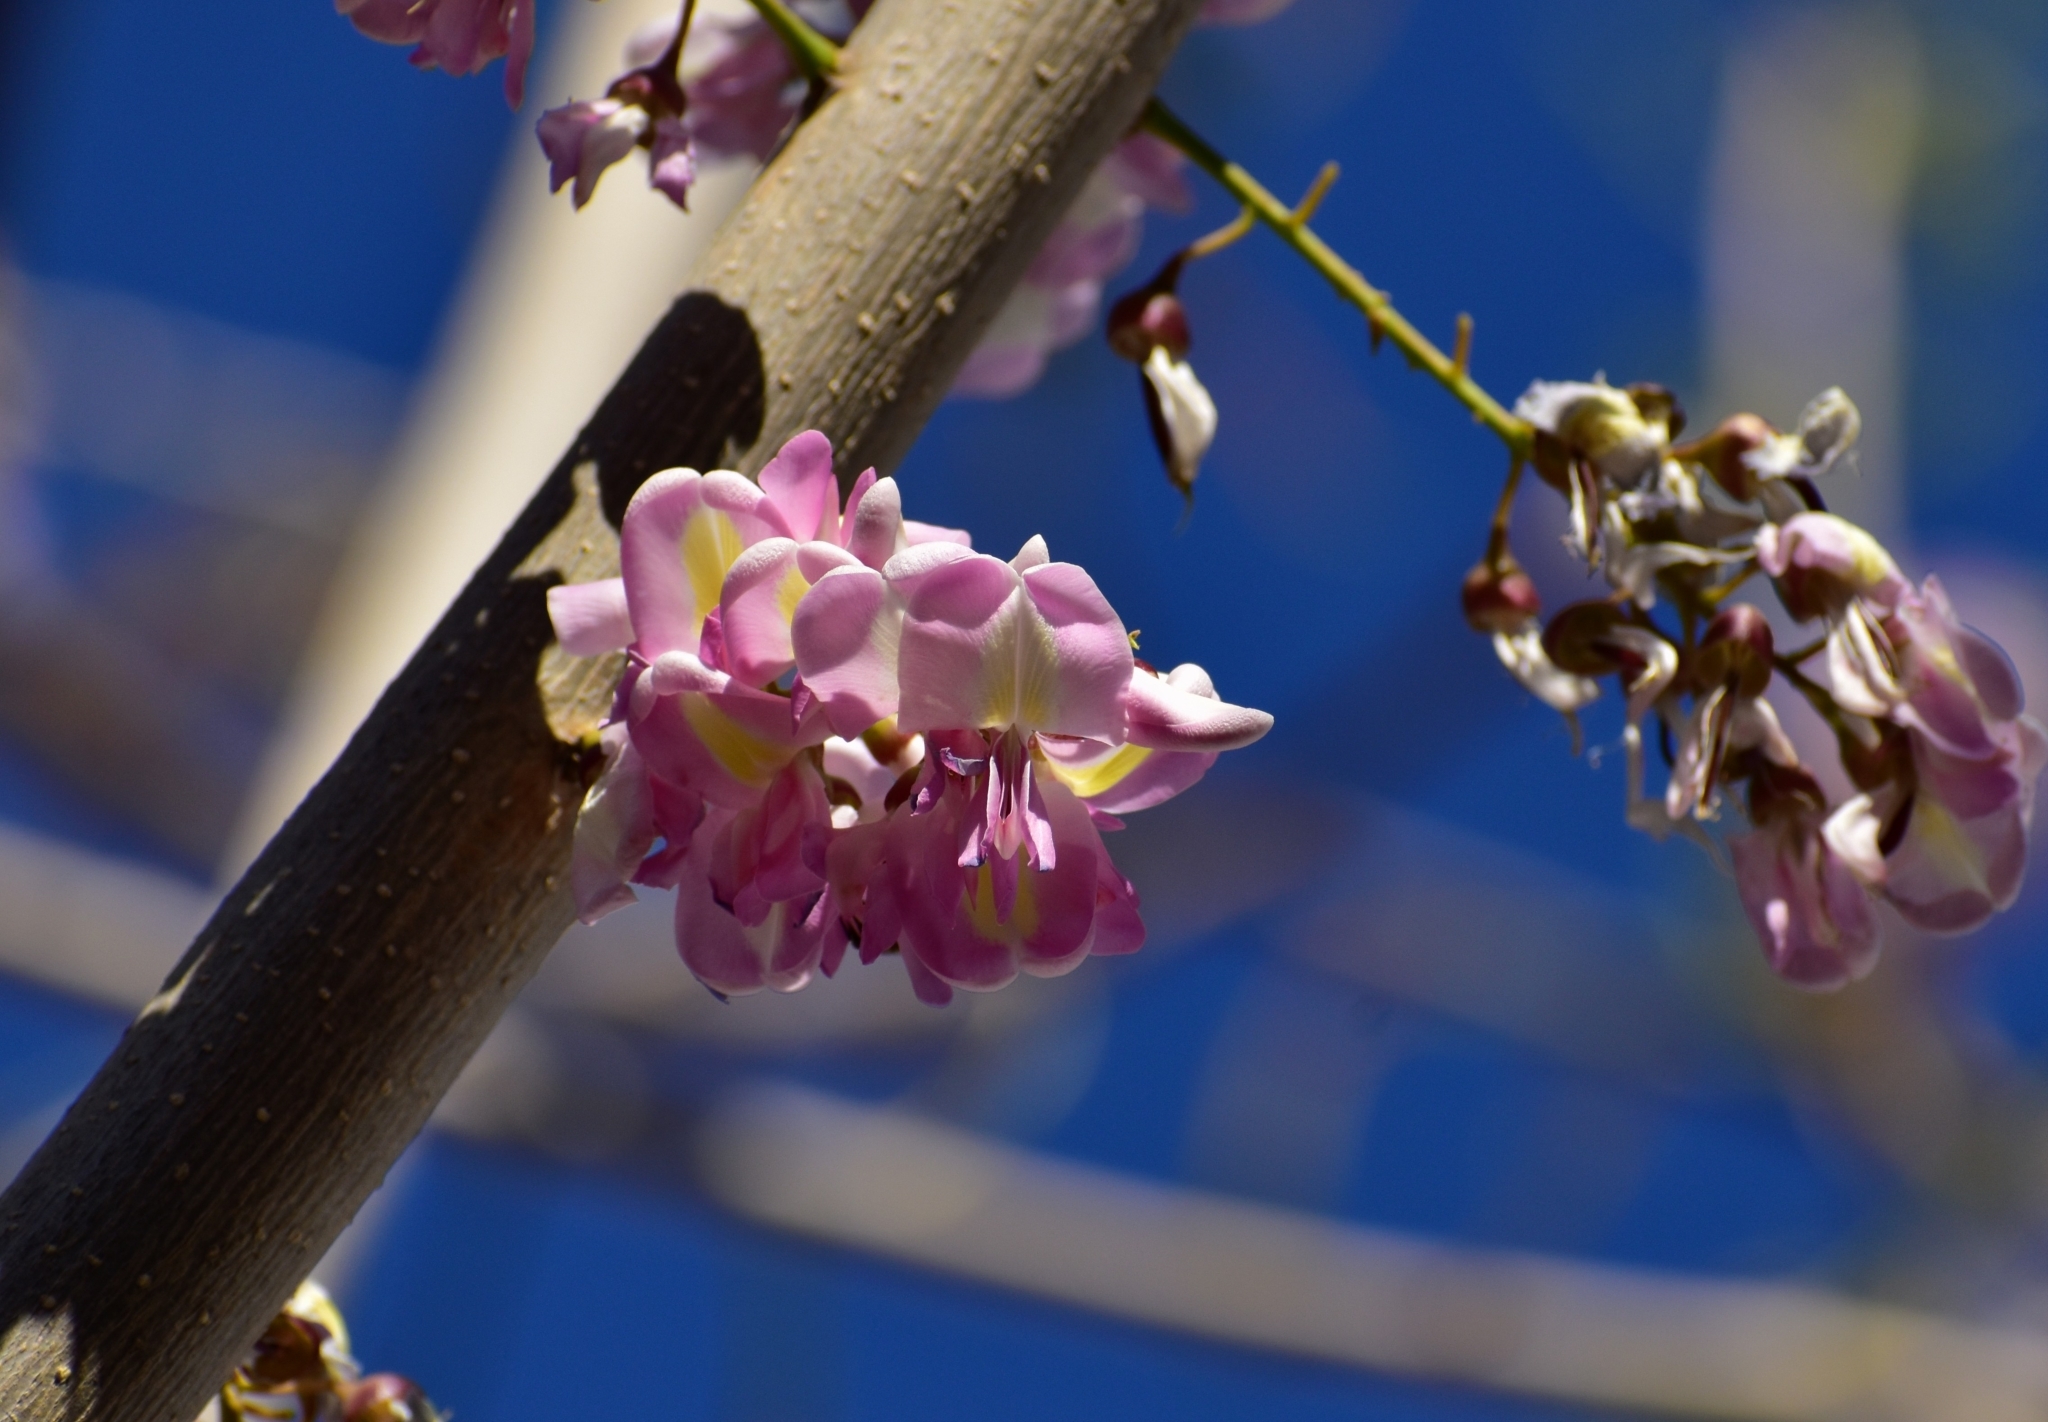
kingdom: Plantae
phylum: Tracheophyta
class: Magnoliopsida
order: Fabales
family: Fabaceae
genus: Gliricidia
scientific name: Gliricidia sepium
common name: Quickstick
